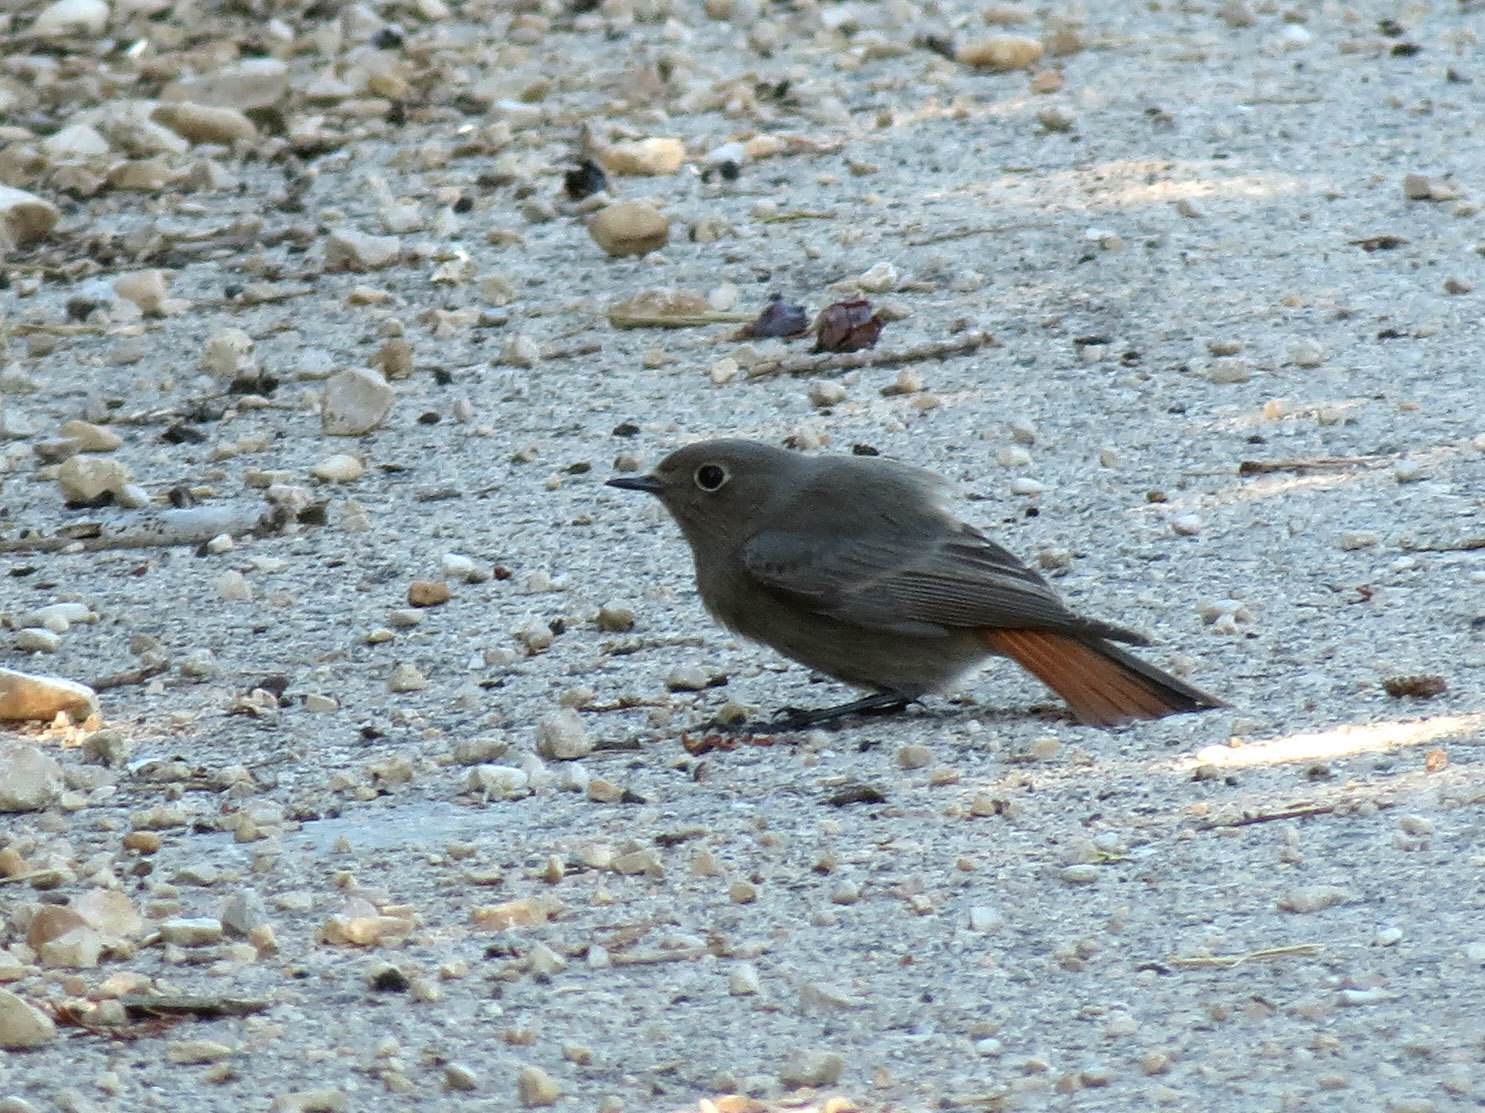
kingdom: Animalia
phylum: Chordata
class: Aves
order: Passeriformes
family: Muscicapidae
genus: Phoenicurus
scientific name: Phoenicurus ochruros
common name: Black redstart
